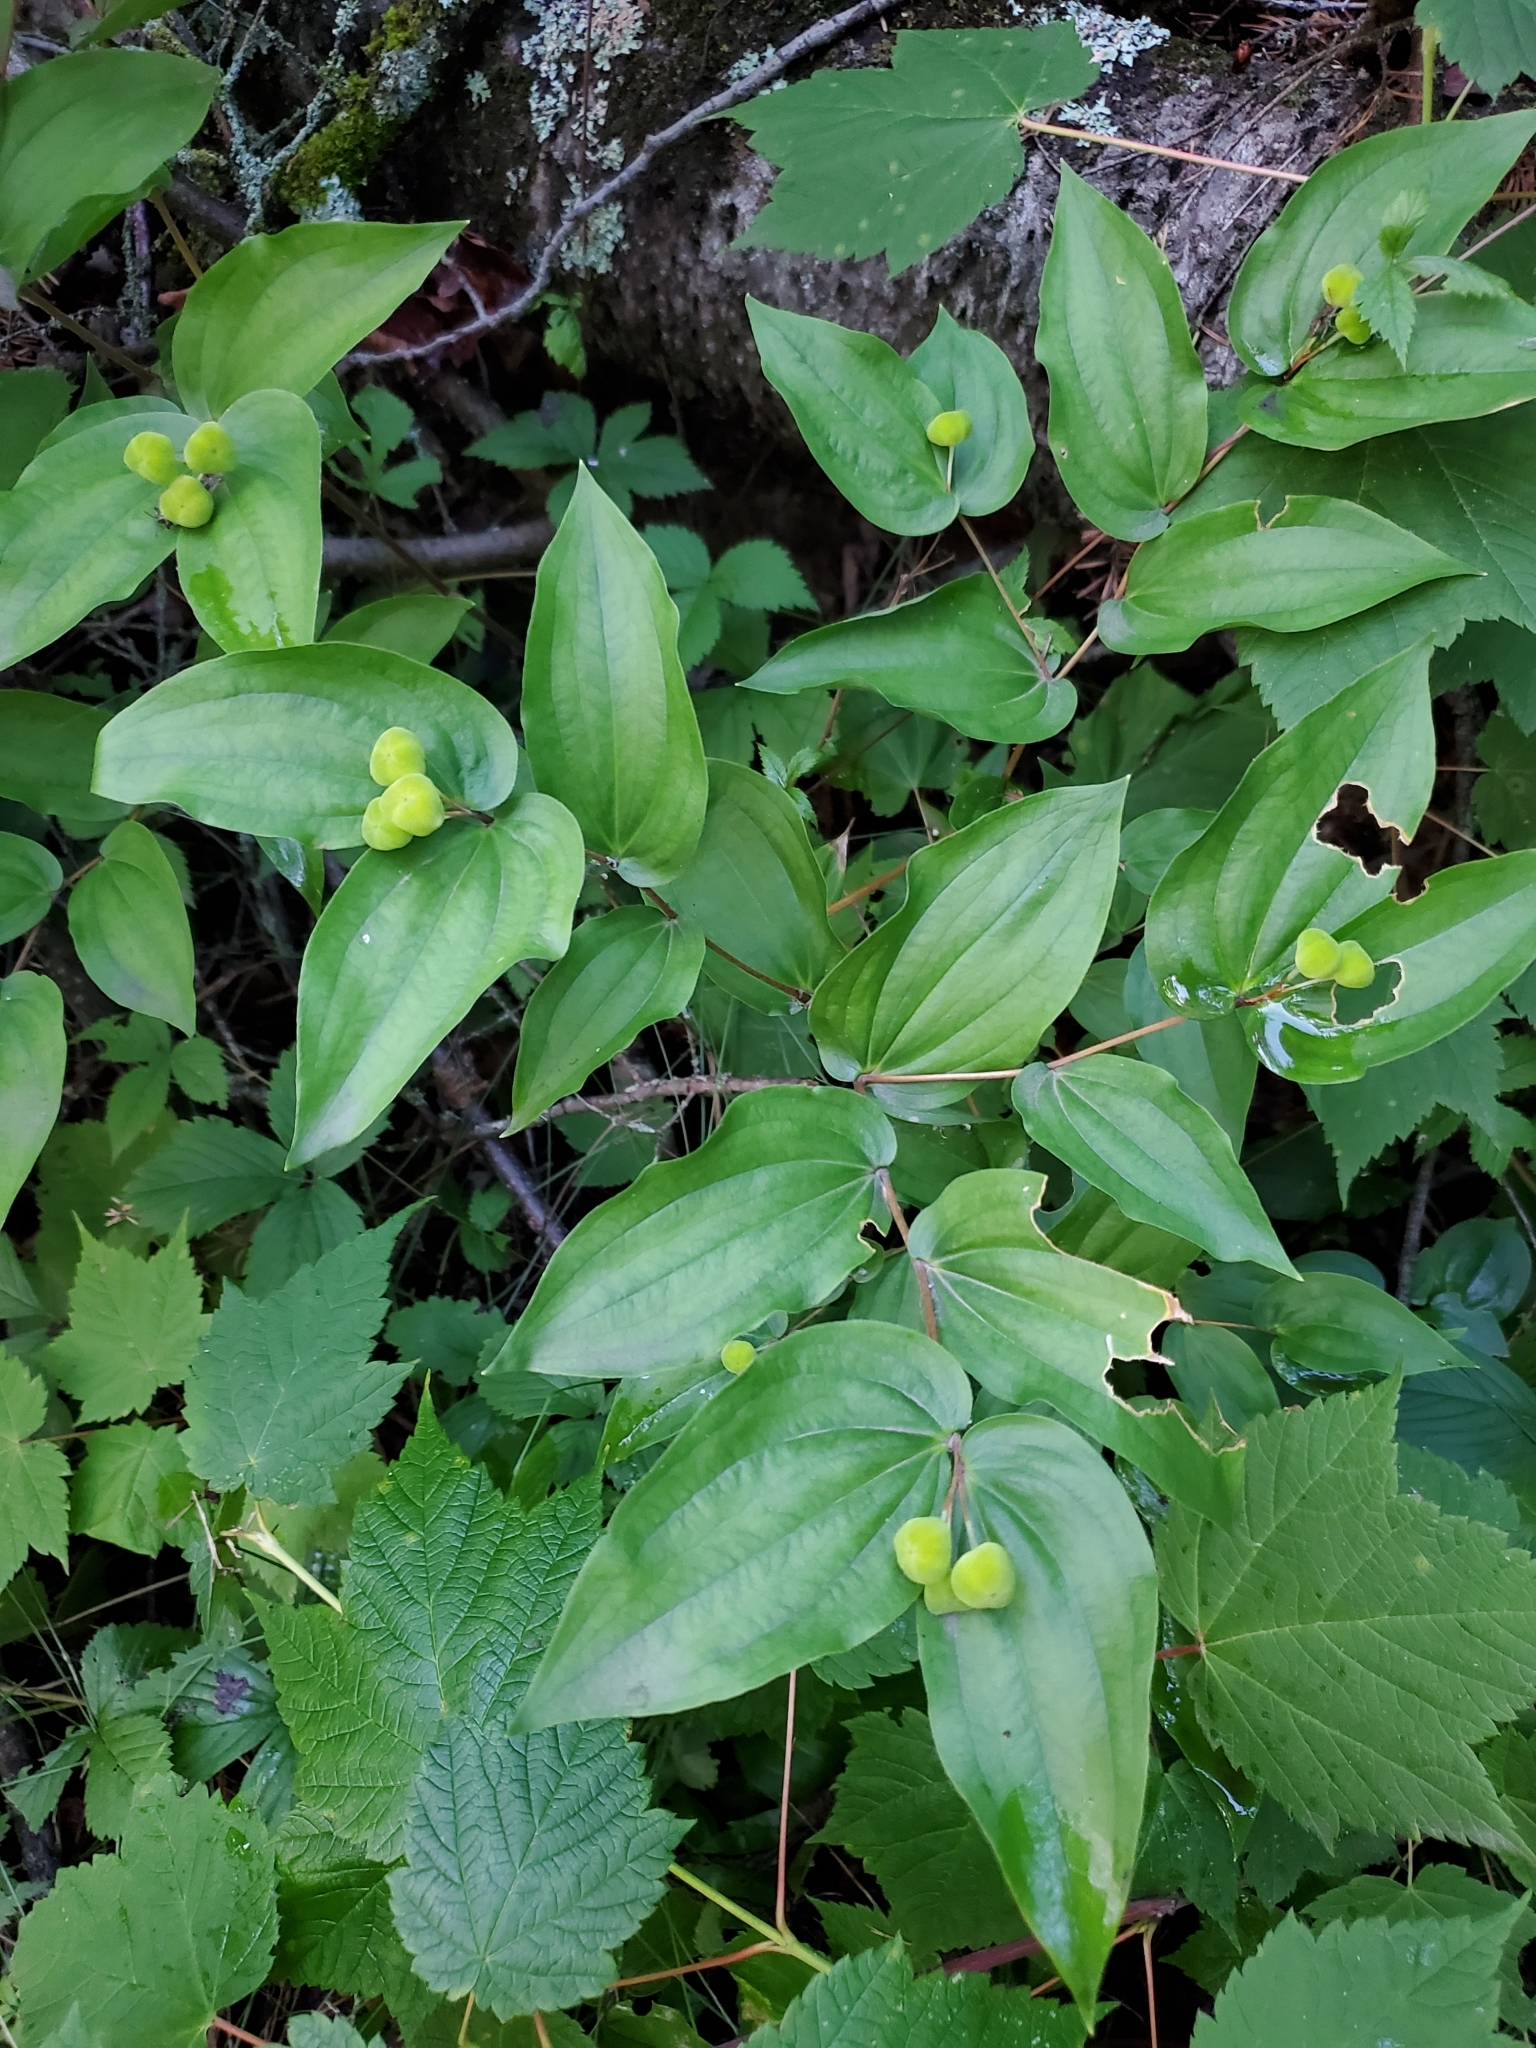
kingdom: Plantae
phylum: Tracheophyta
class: Liliopsida
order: Liliales
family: Liliaceae
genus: Prosartes
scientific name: Prosartes trachycarpa
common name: Rough-fruit fairy-bells
